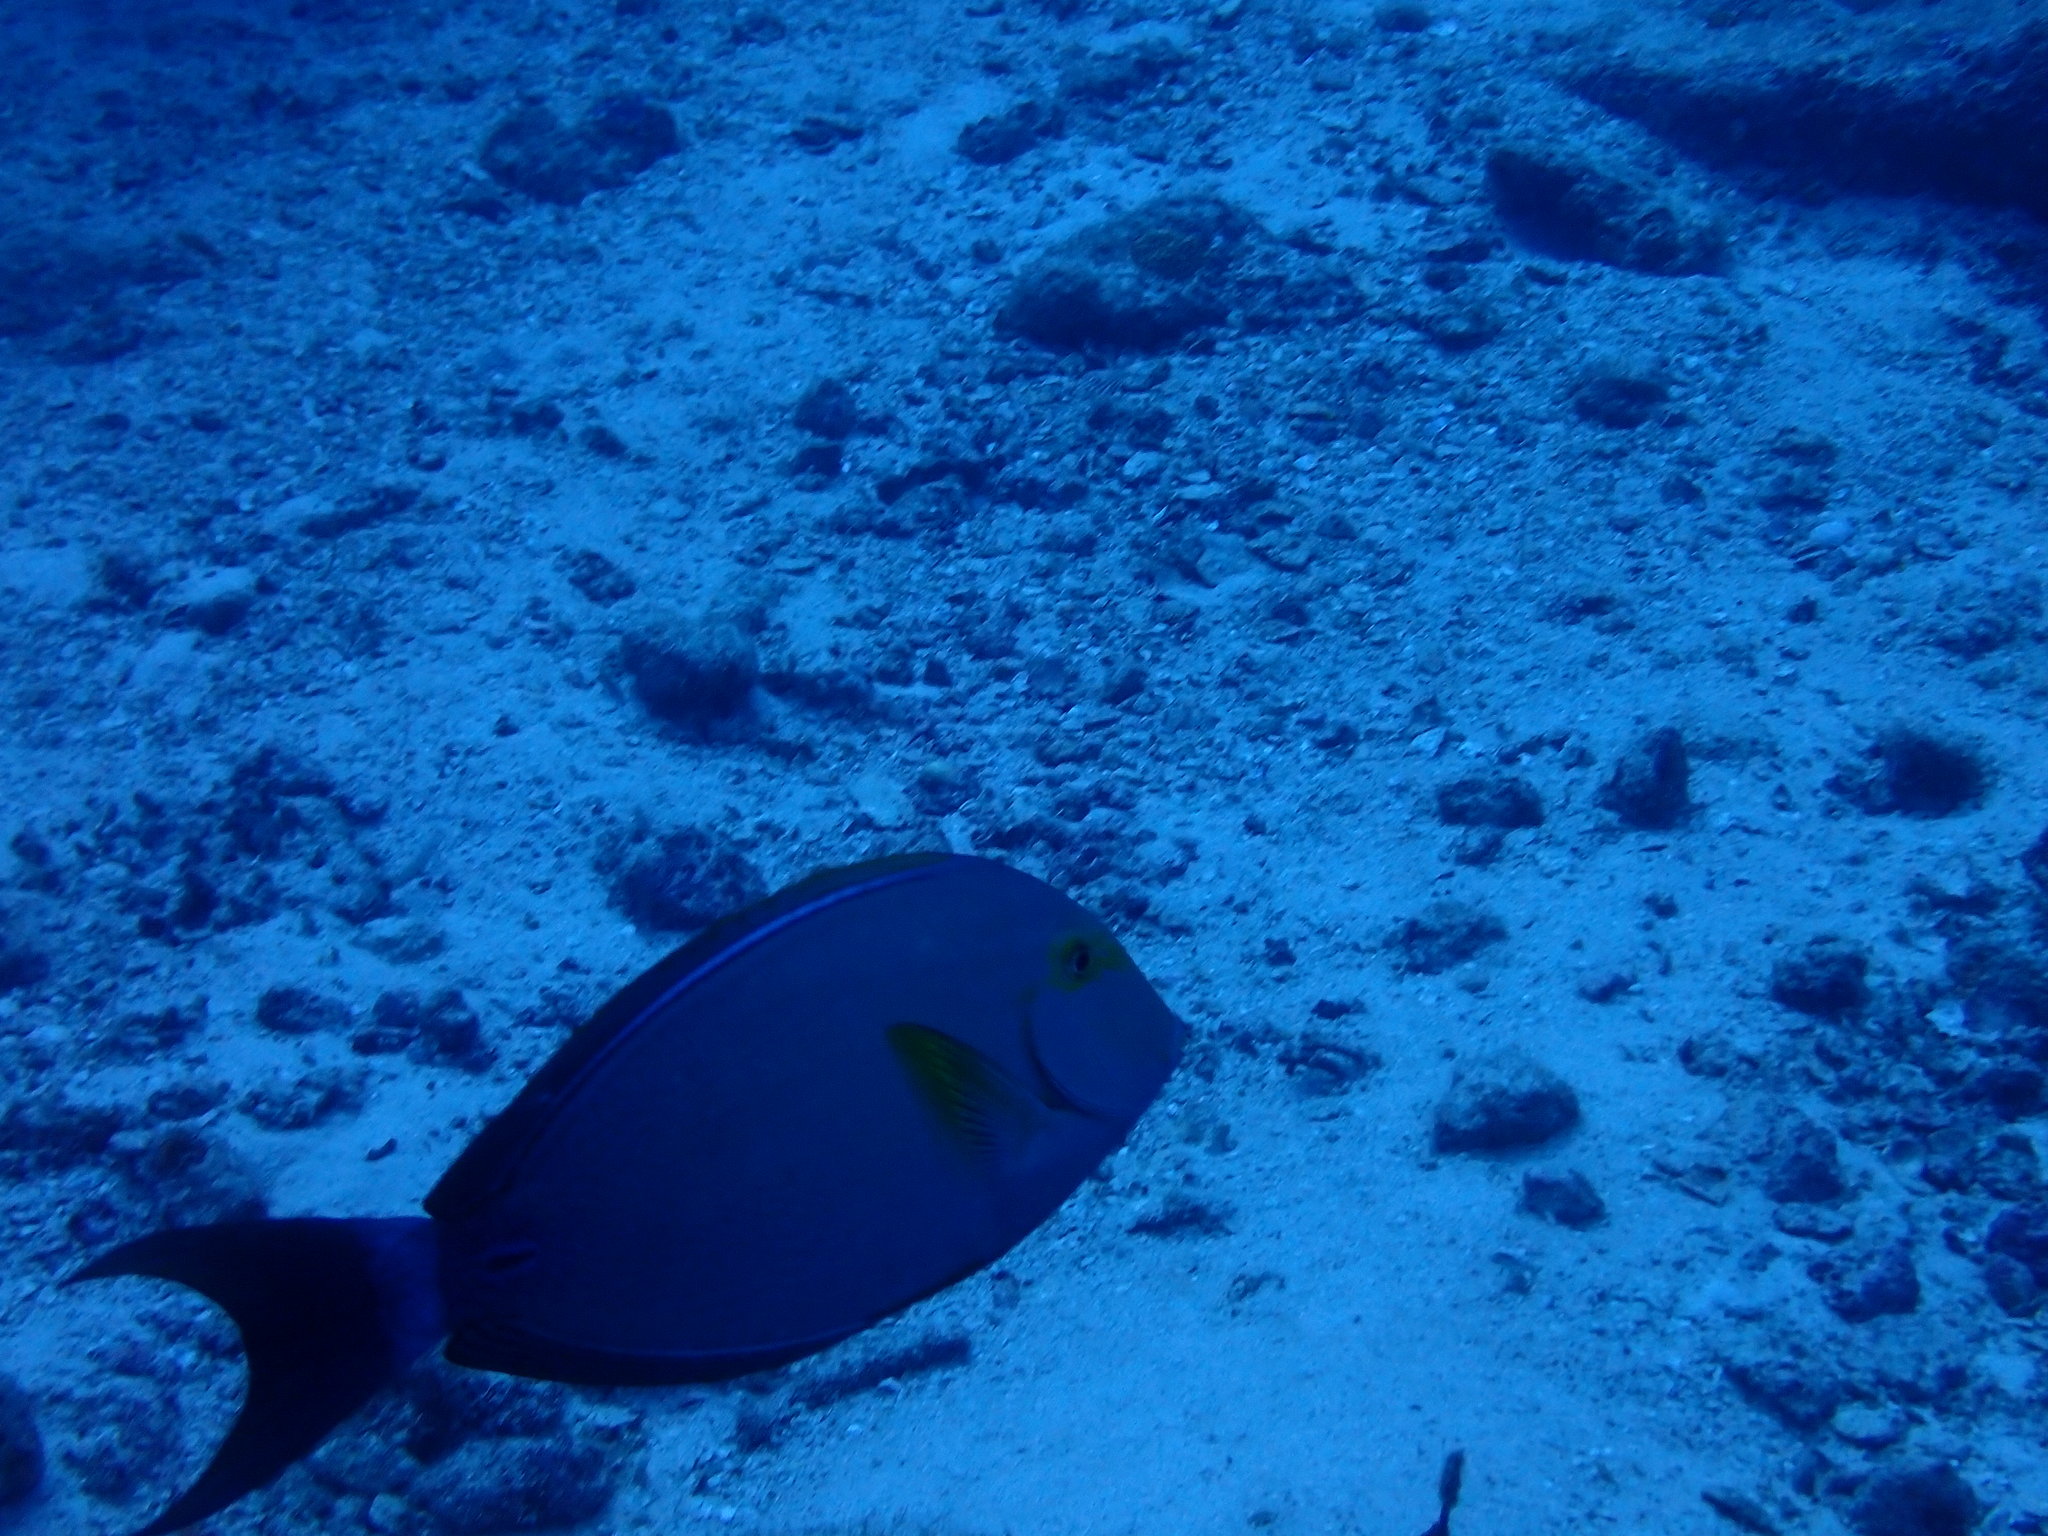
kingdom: Animalia
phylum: Chordata
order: Perciformes
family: Acanthuridae
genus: Acanthurus
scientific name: Acanthurus xanthopterus
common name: Cuvier's surgeonfish
